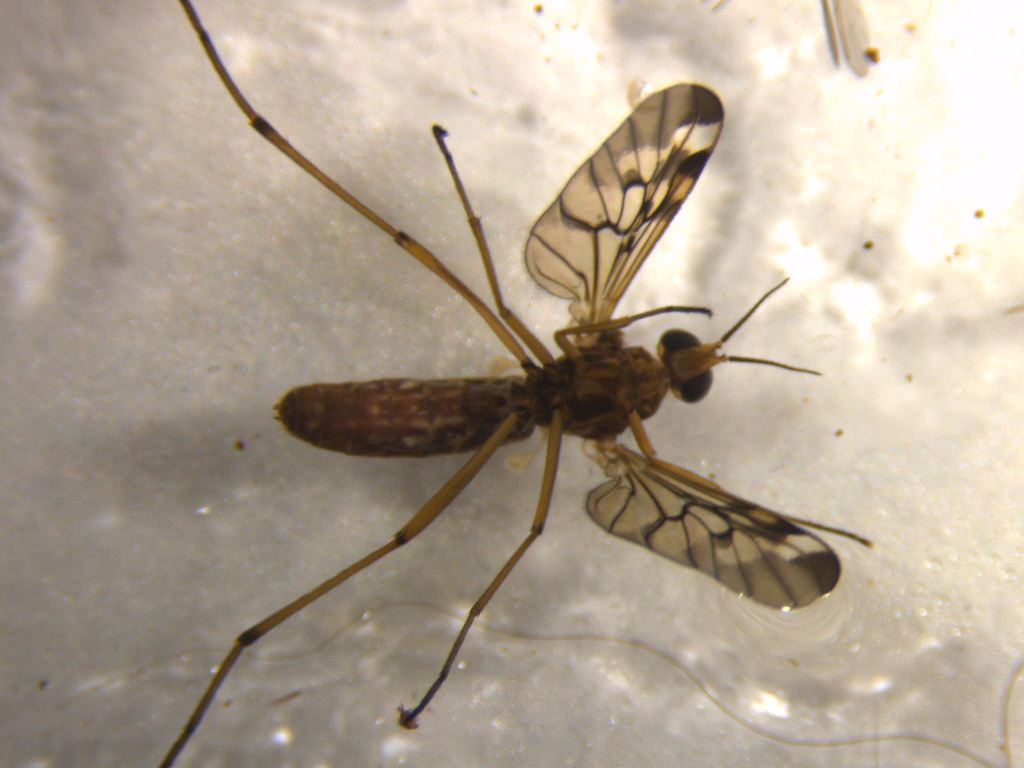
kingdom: Animalia
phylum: Arthropoda
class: Insecta
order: Diptera
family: Anisopodidae
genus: Sylvicola
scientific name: Sylvicola notatus
